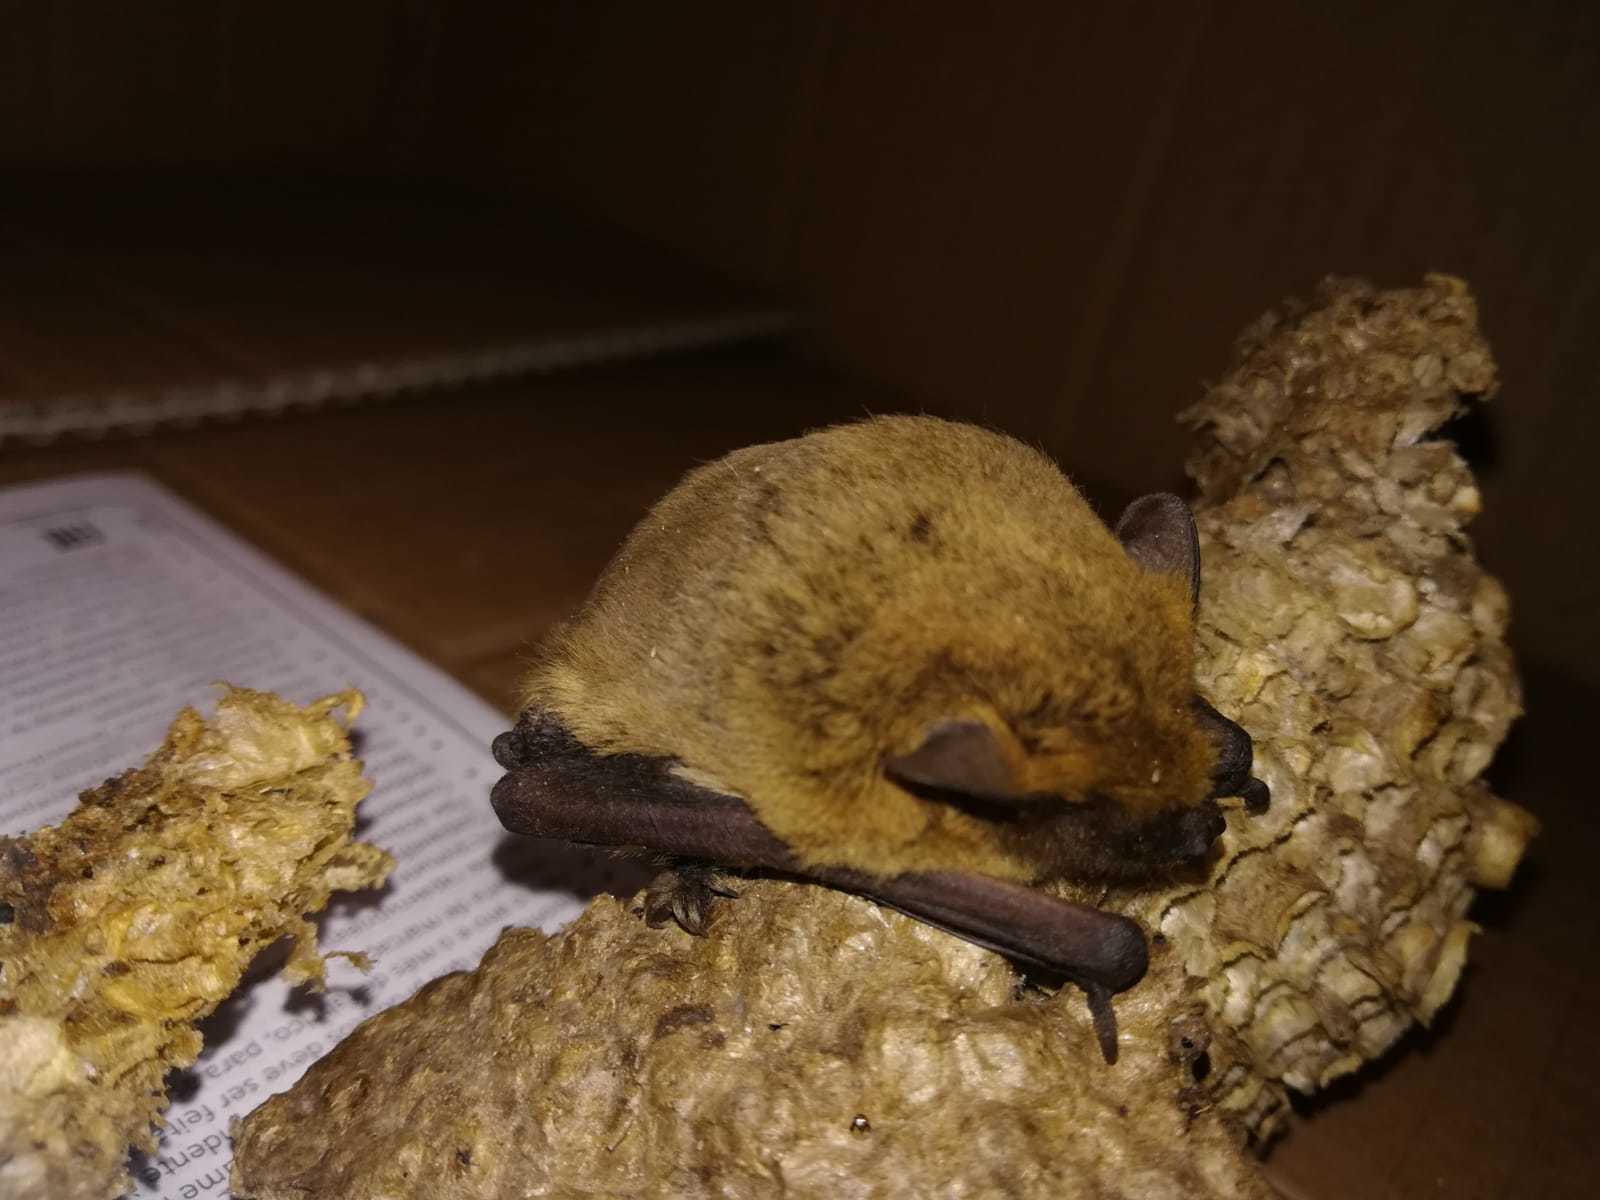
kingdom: Animalia
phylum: Chordata
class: Mammalia
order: Chiroptera
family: Vespertilionidae
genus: Pipistrellus
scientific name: Pipistrellus kuhlii
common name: Kuhl's pipistrelle
